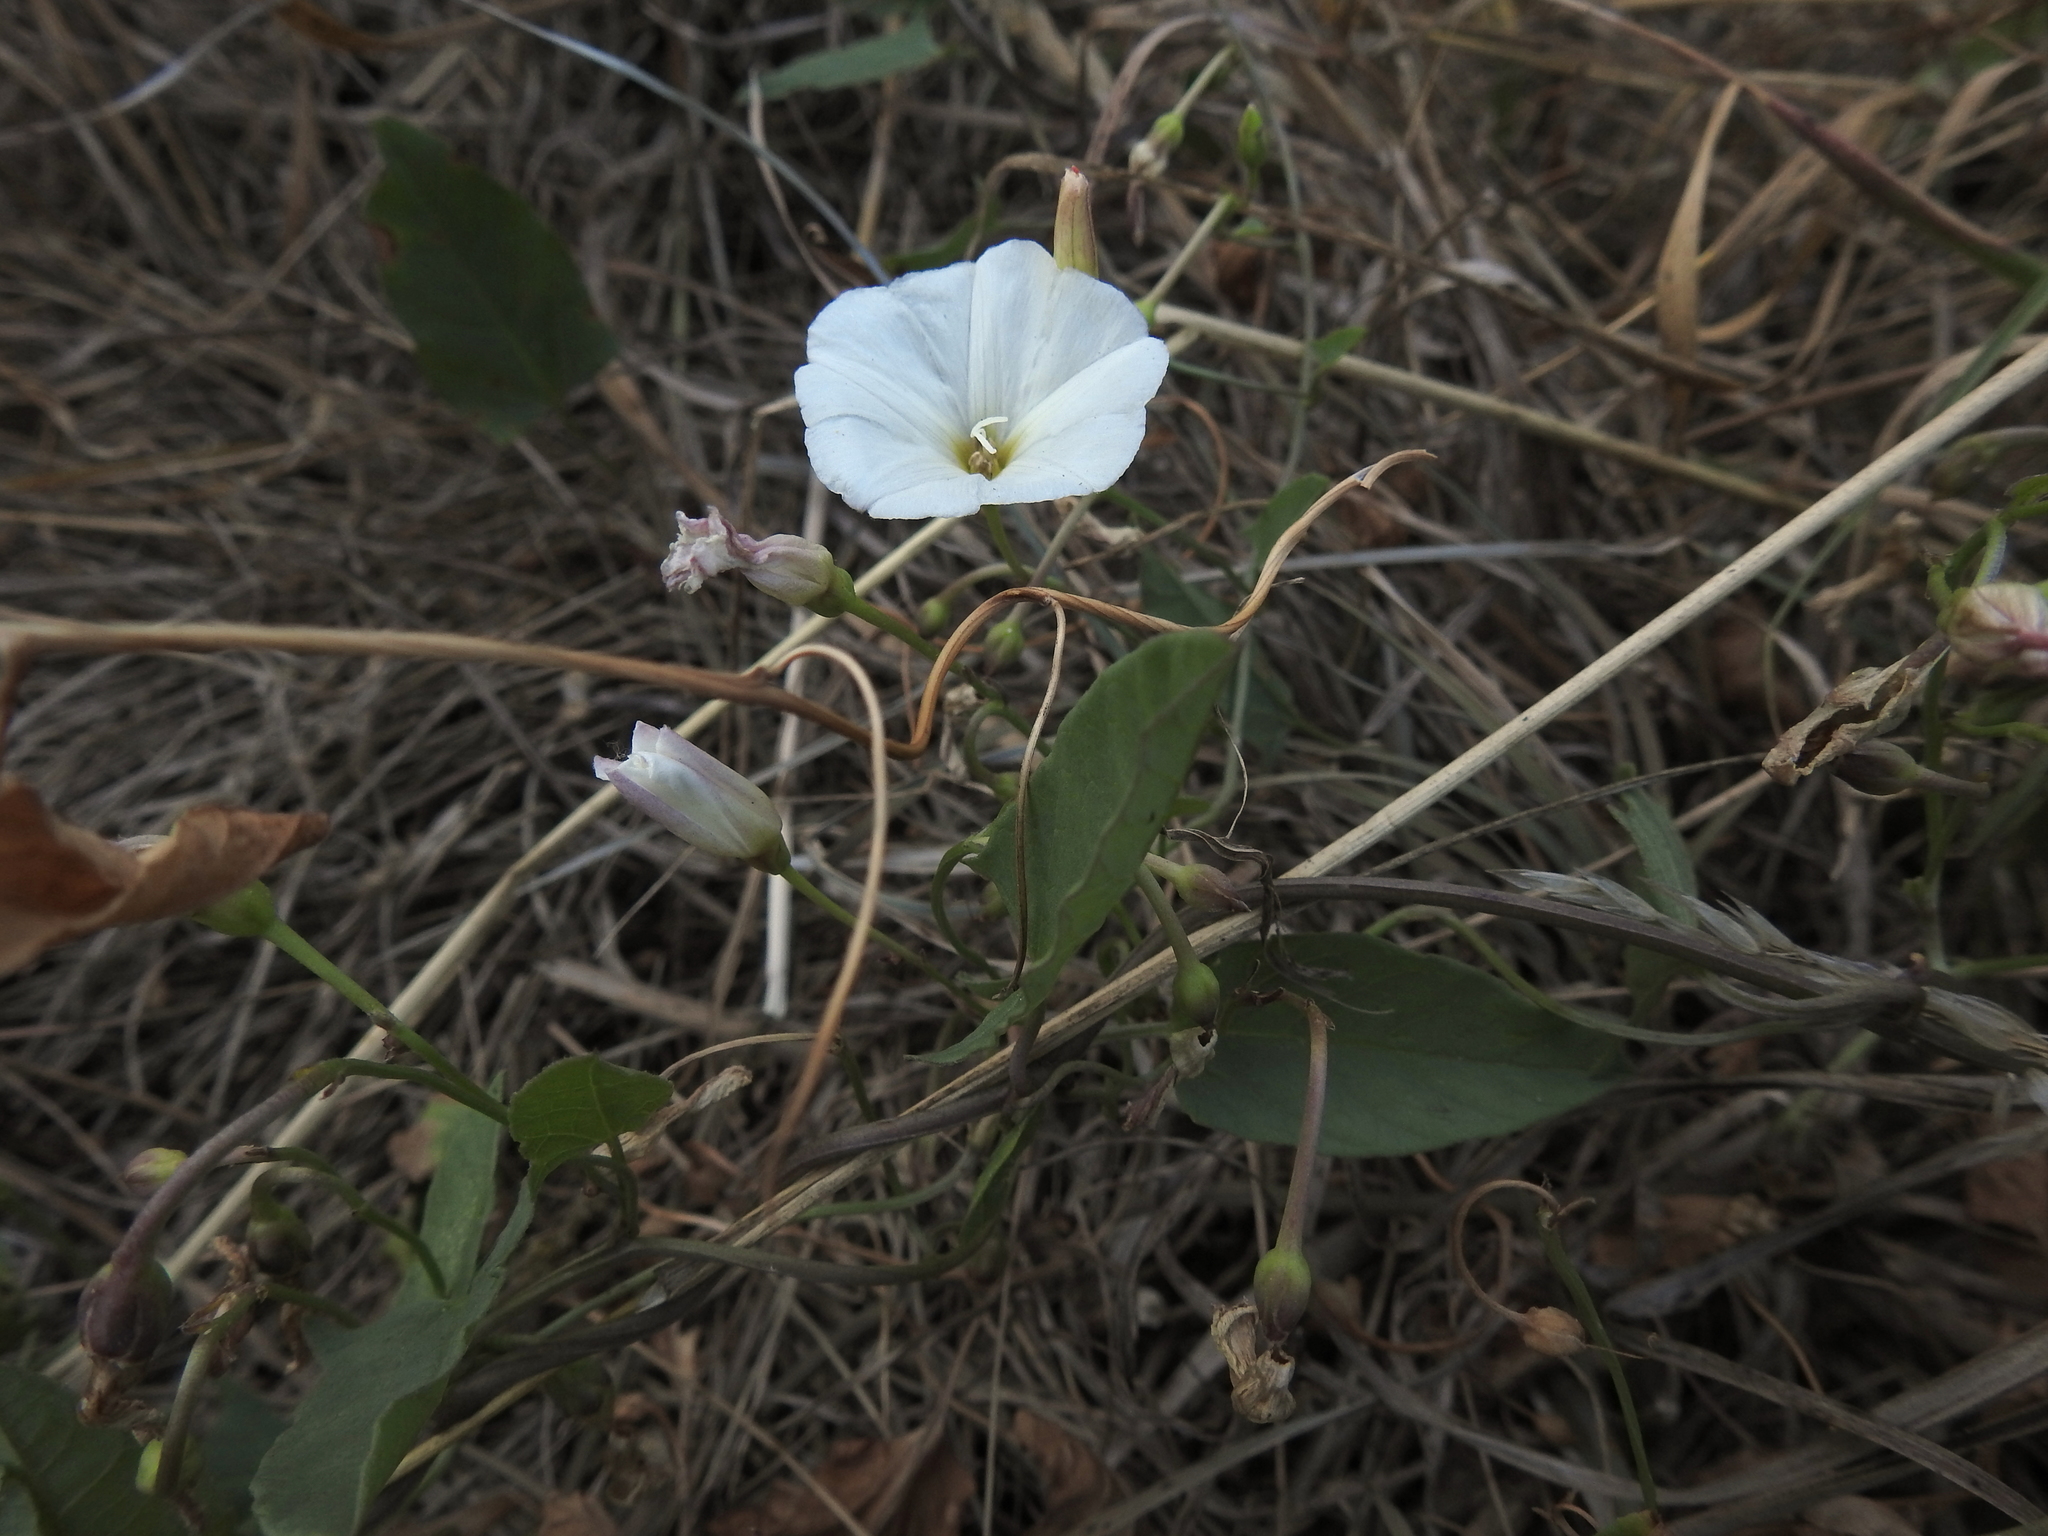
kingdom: Plantae
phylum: Tracheophyta
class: Magnoliopsida
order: Solanales
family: Convolvulaceae
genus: Convolvulus
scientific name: Convolvulus arvensis
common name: Field bindweed
